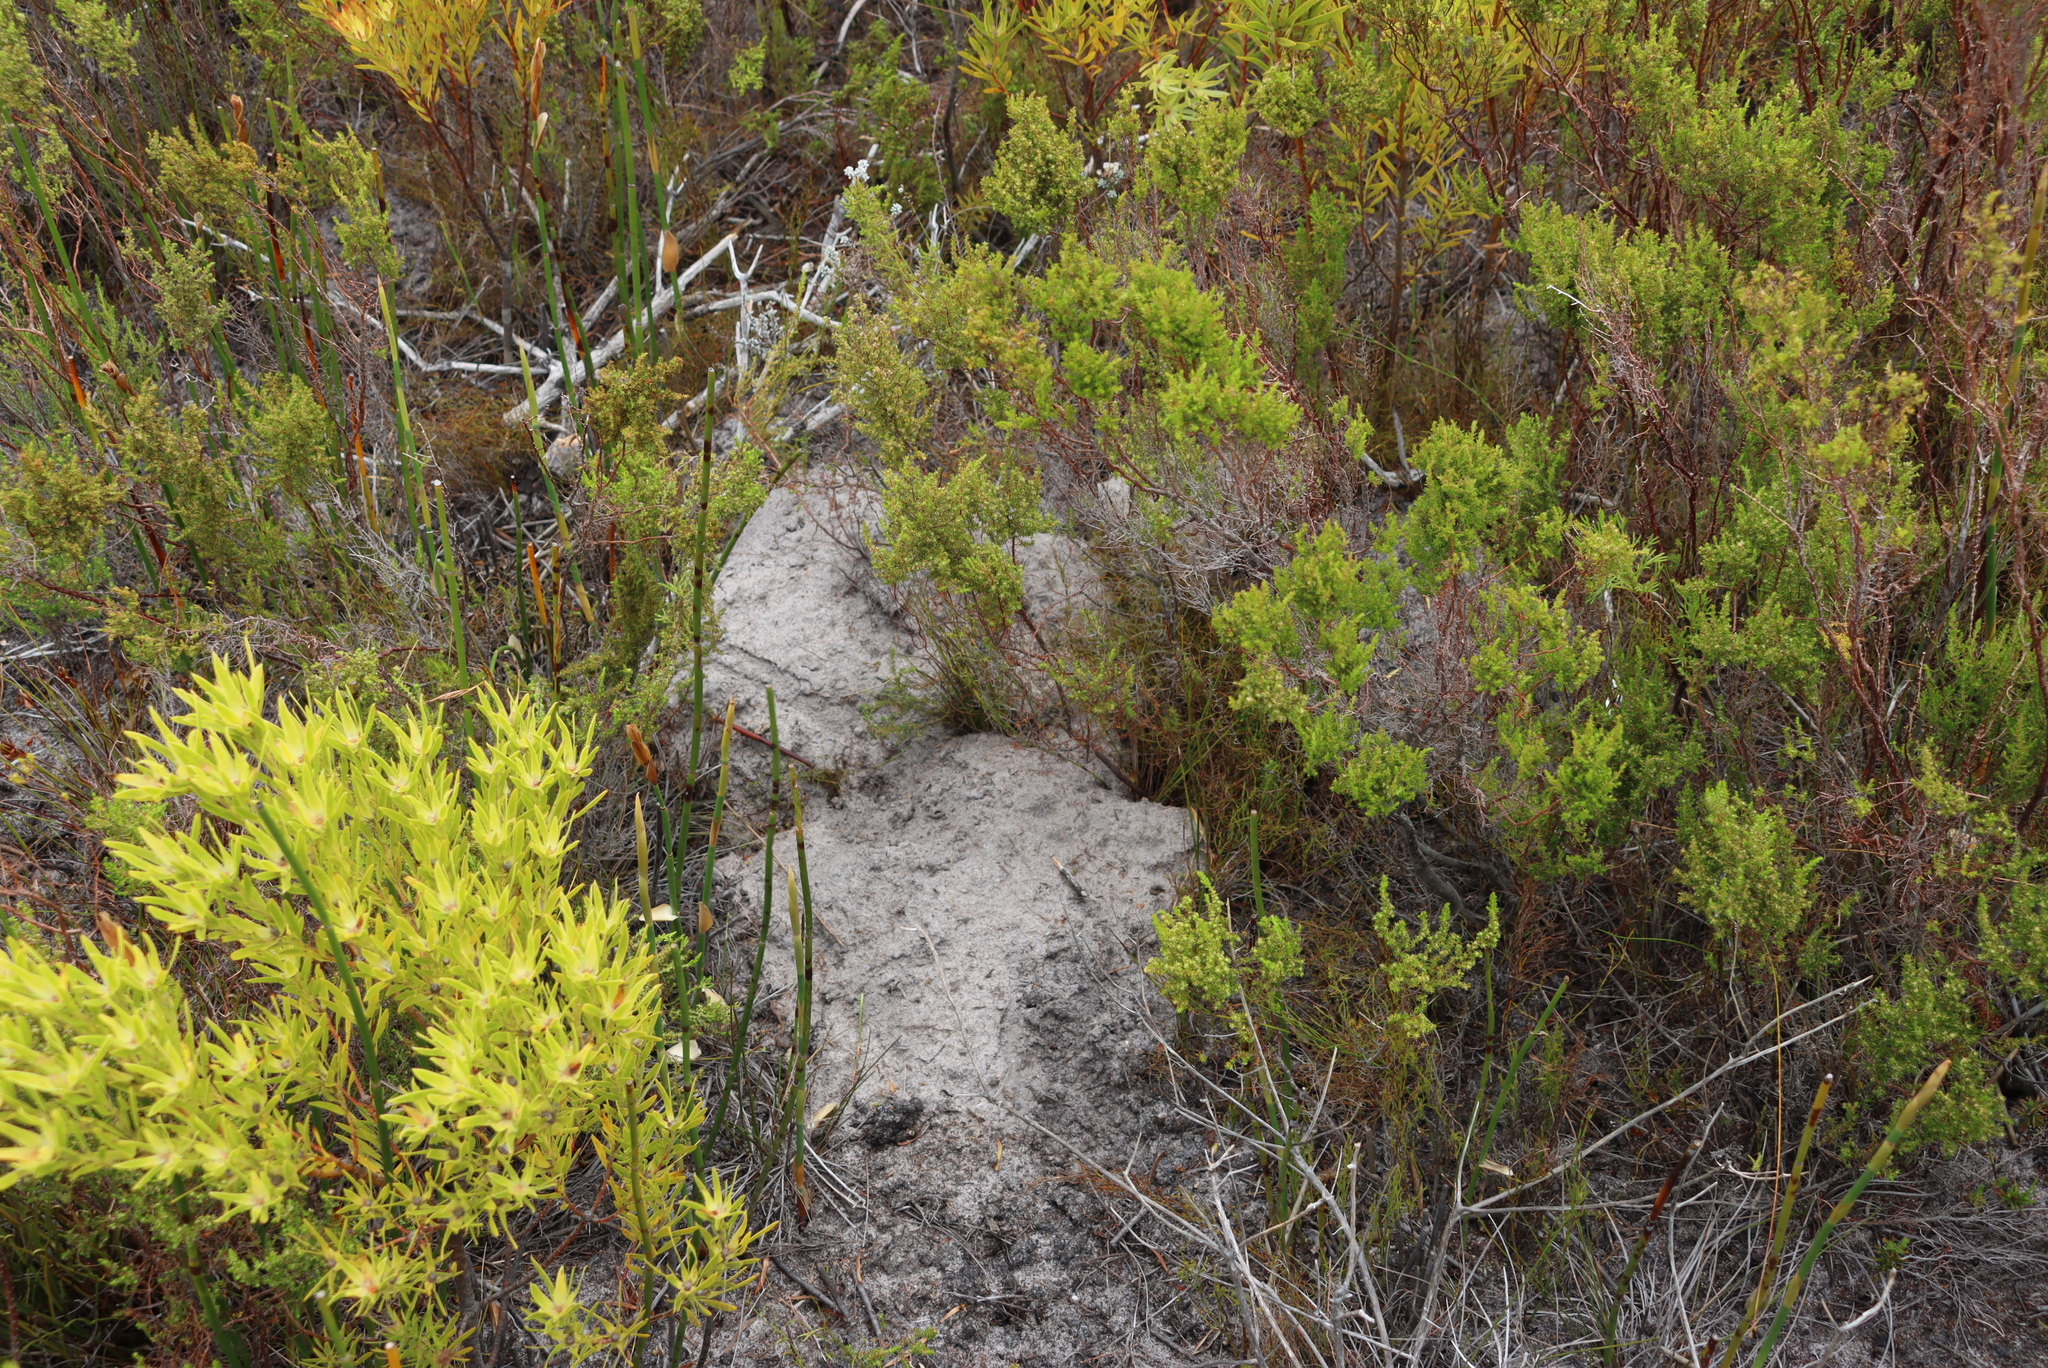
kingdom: Animalia
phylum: Chordata
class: Mammalia
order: Rodentia
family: Bathyergidae
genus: Georychus
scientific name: Georychus capensis
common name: Cape mole-rat
